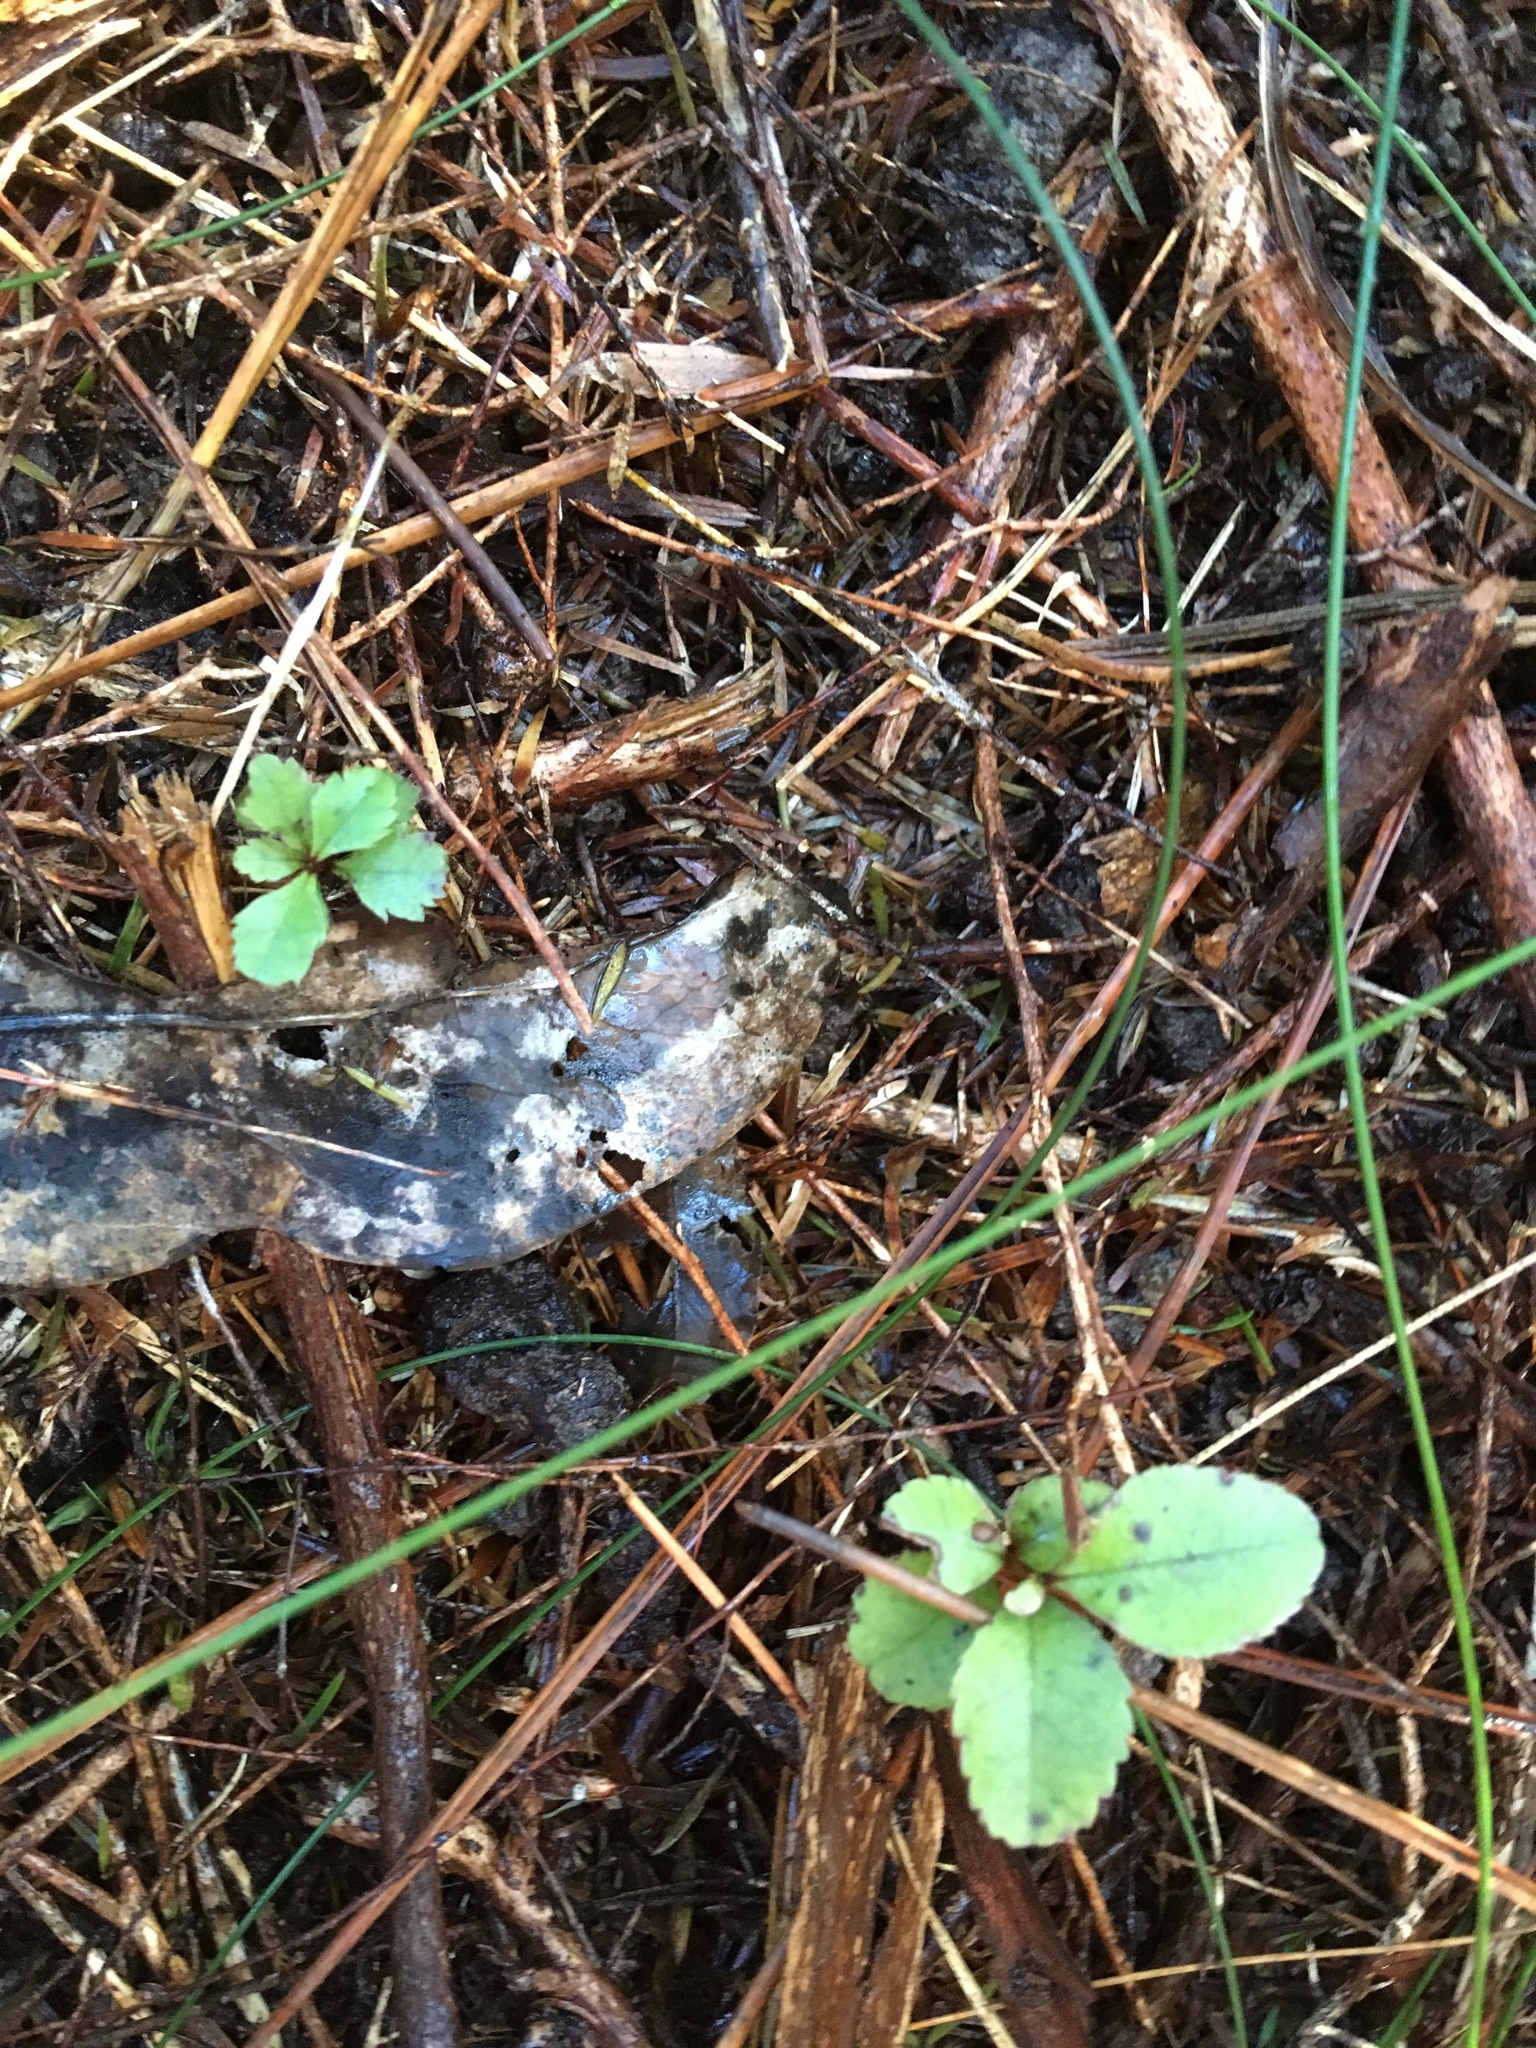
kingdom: Plantae
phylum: Tracheophyta
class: Magnoliopsida
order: Ericales
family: Primulaceae
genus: Myrsine
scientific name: Myrsine australis
